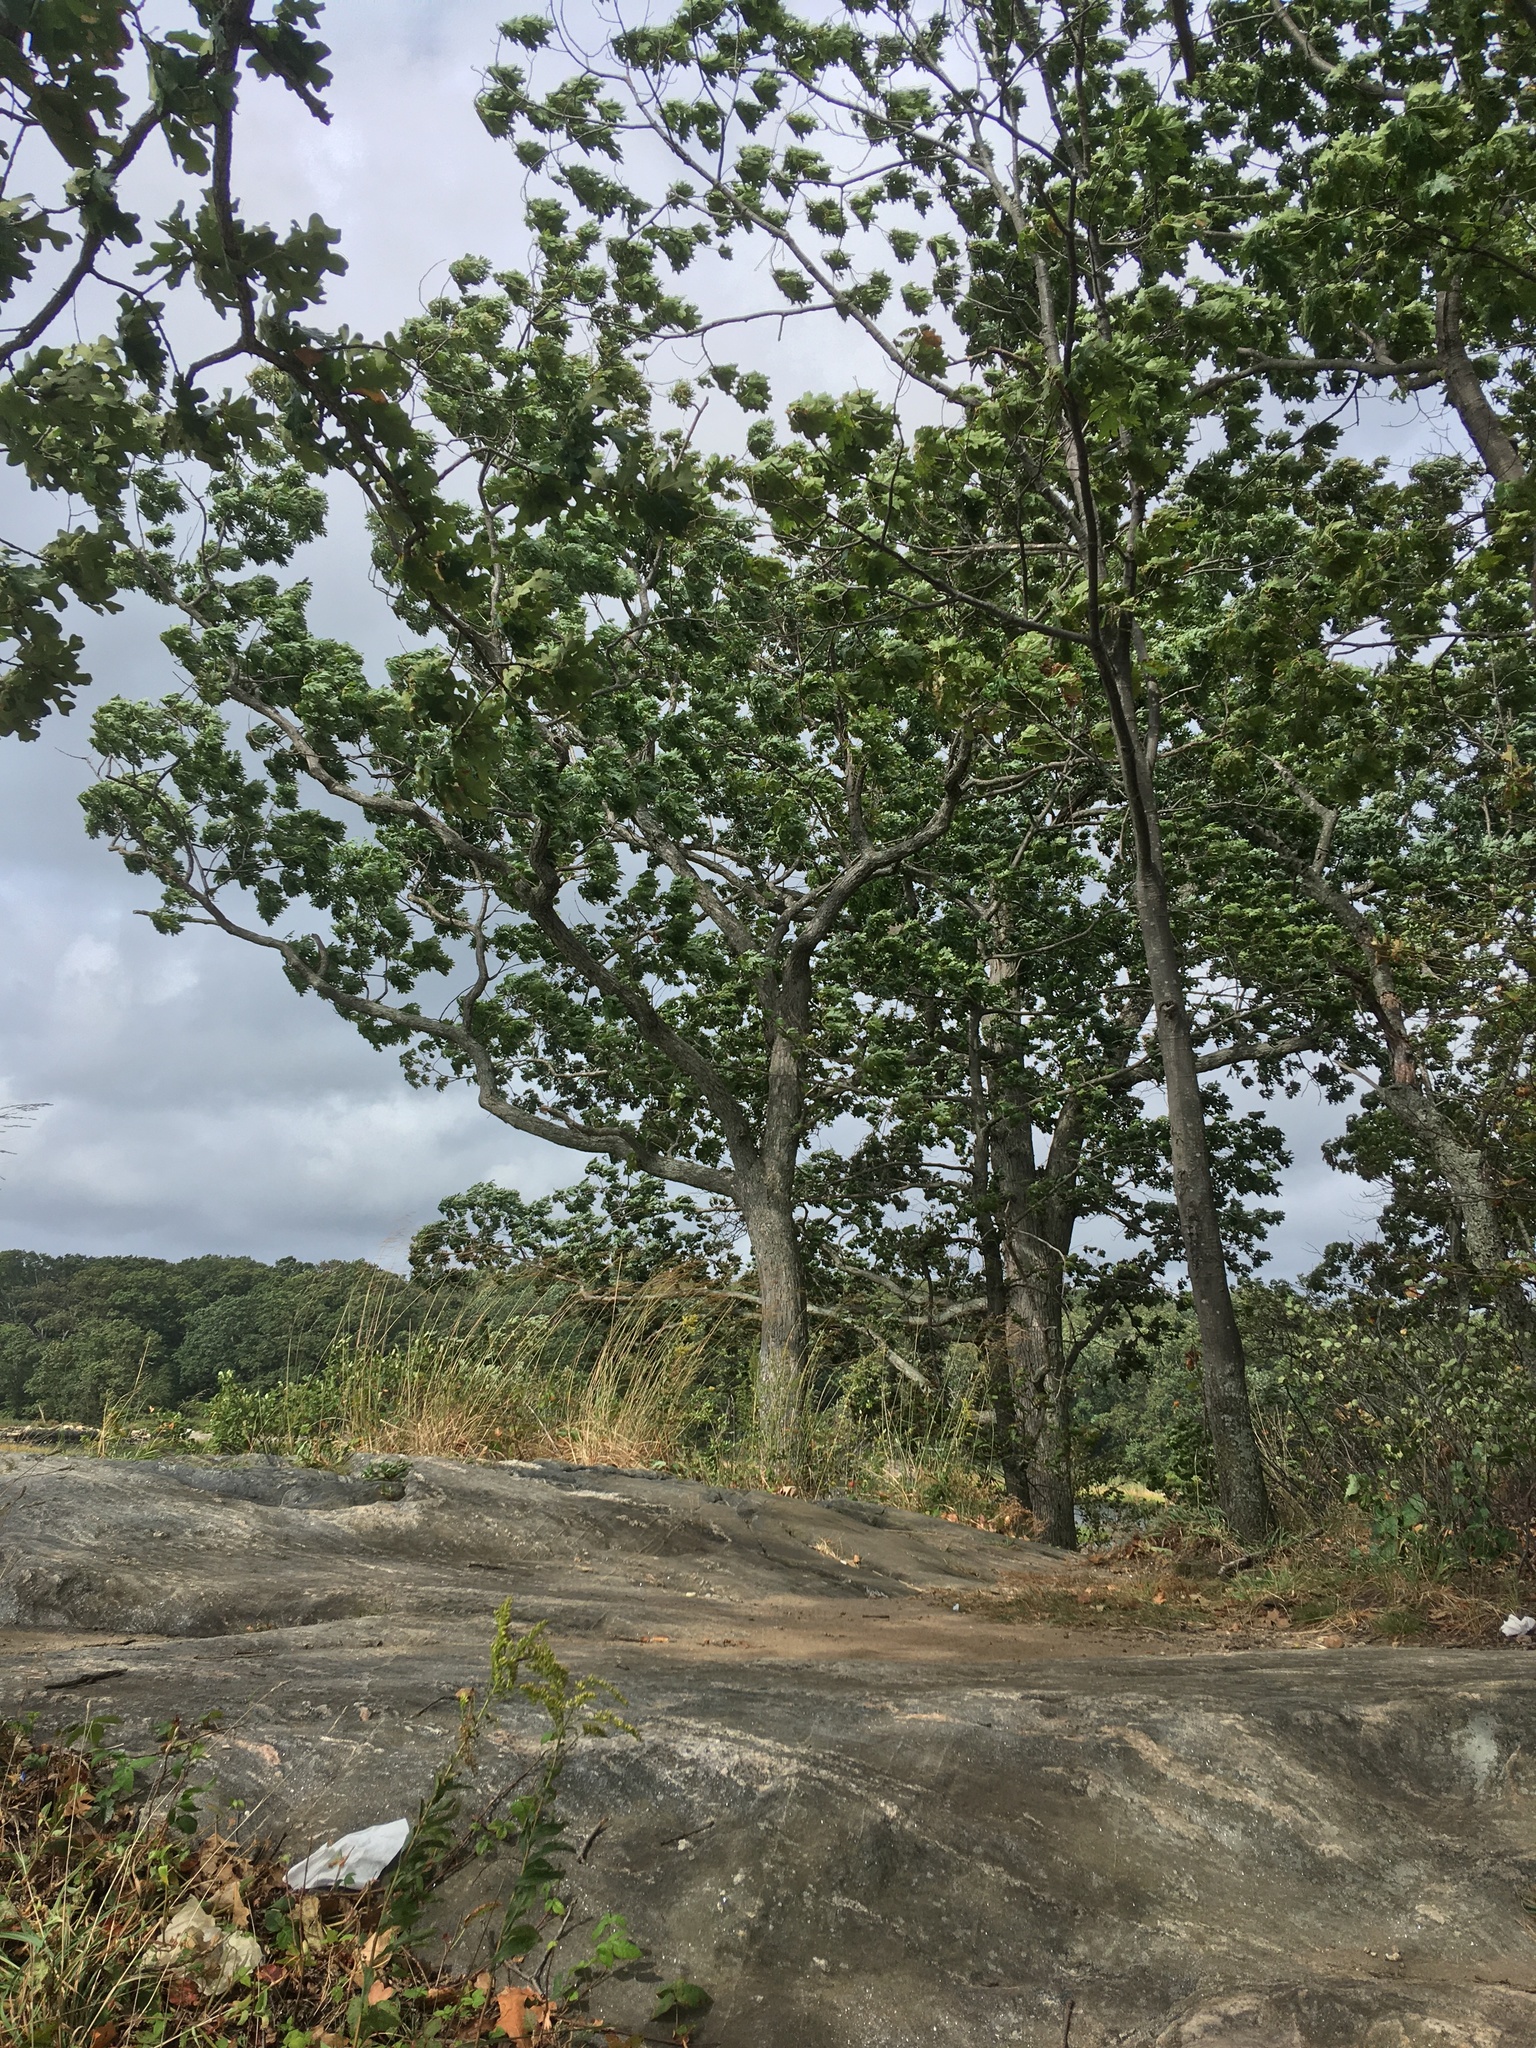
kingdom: Plantae
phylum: Tracheophyta
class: Magnoliopsida
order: Fagales
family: Fagaceae
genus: Quercus
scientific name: Quercus stellata
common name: Post oak
